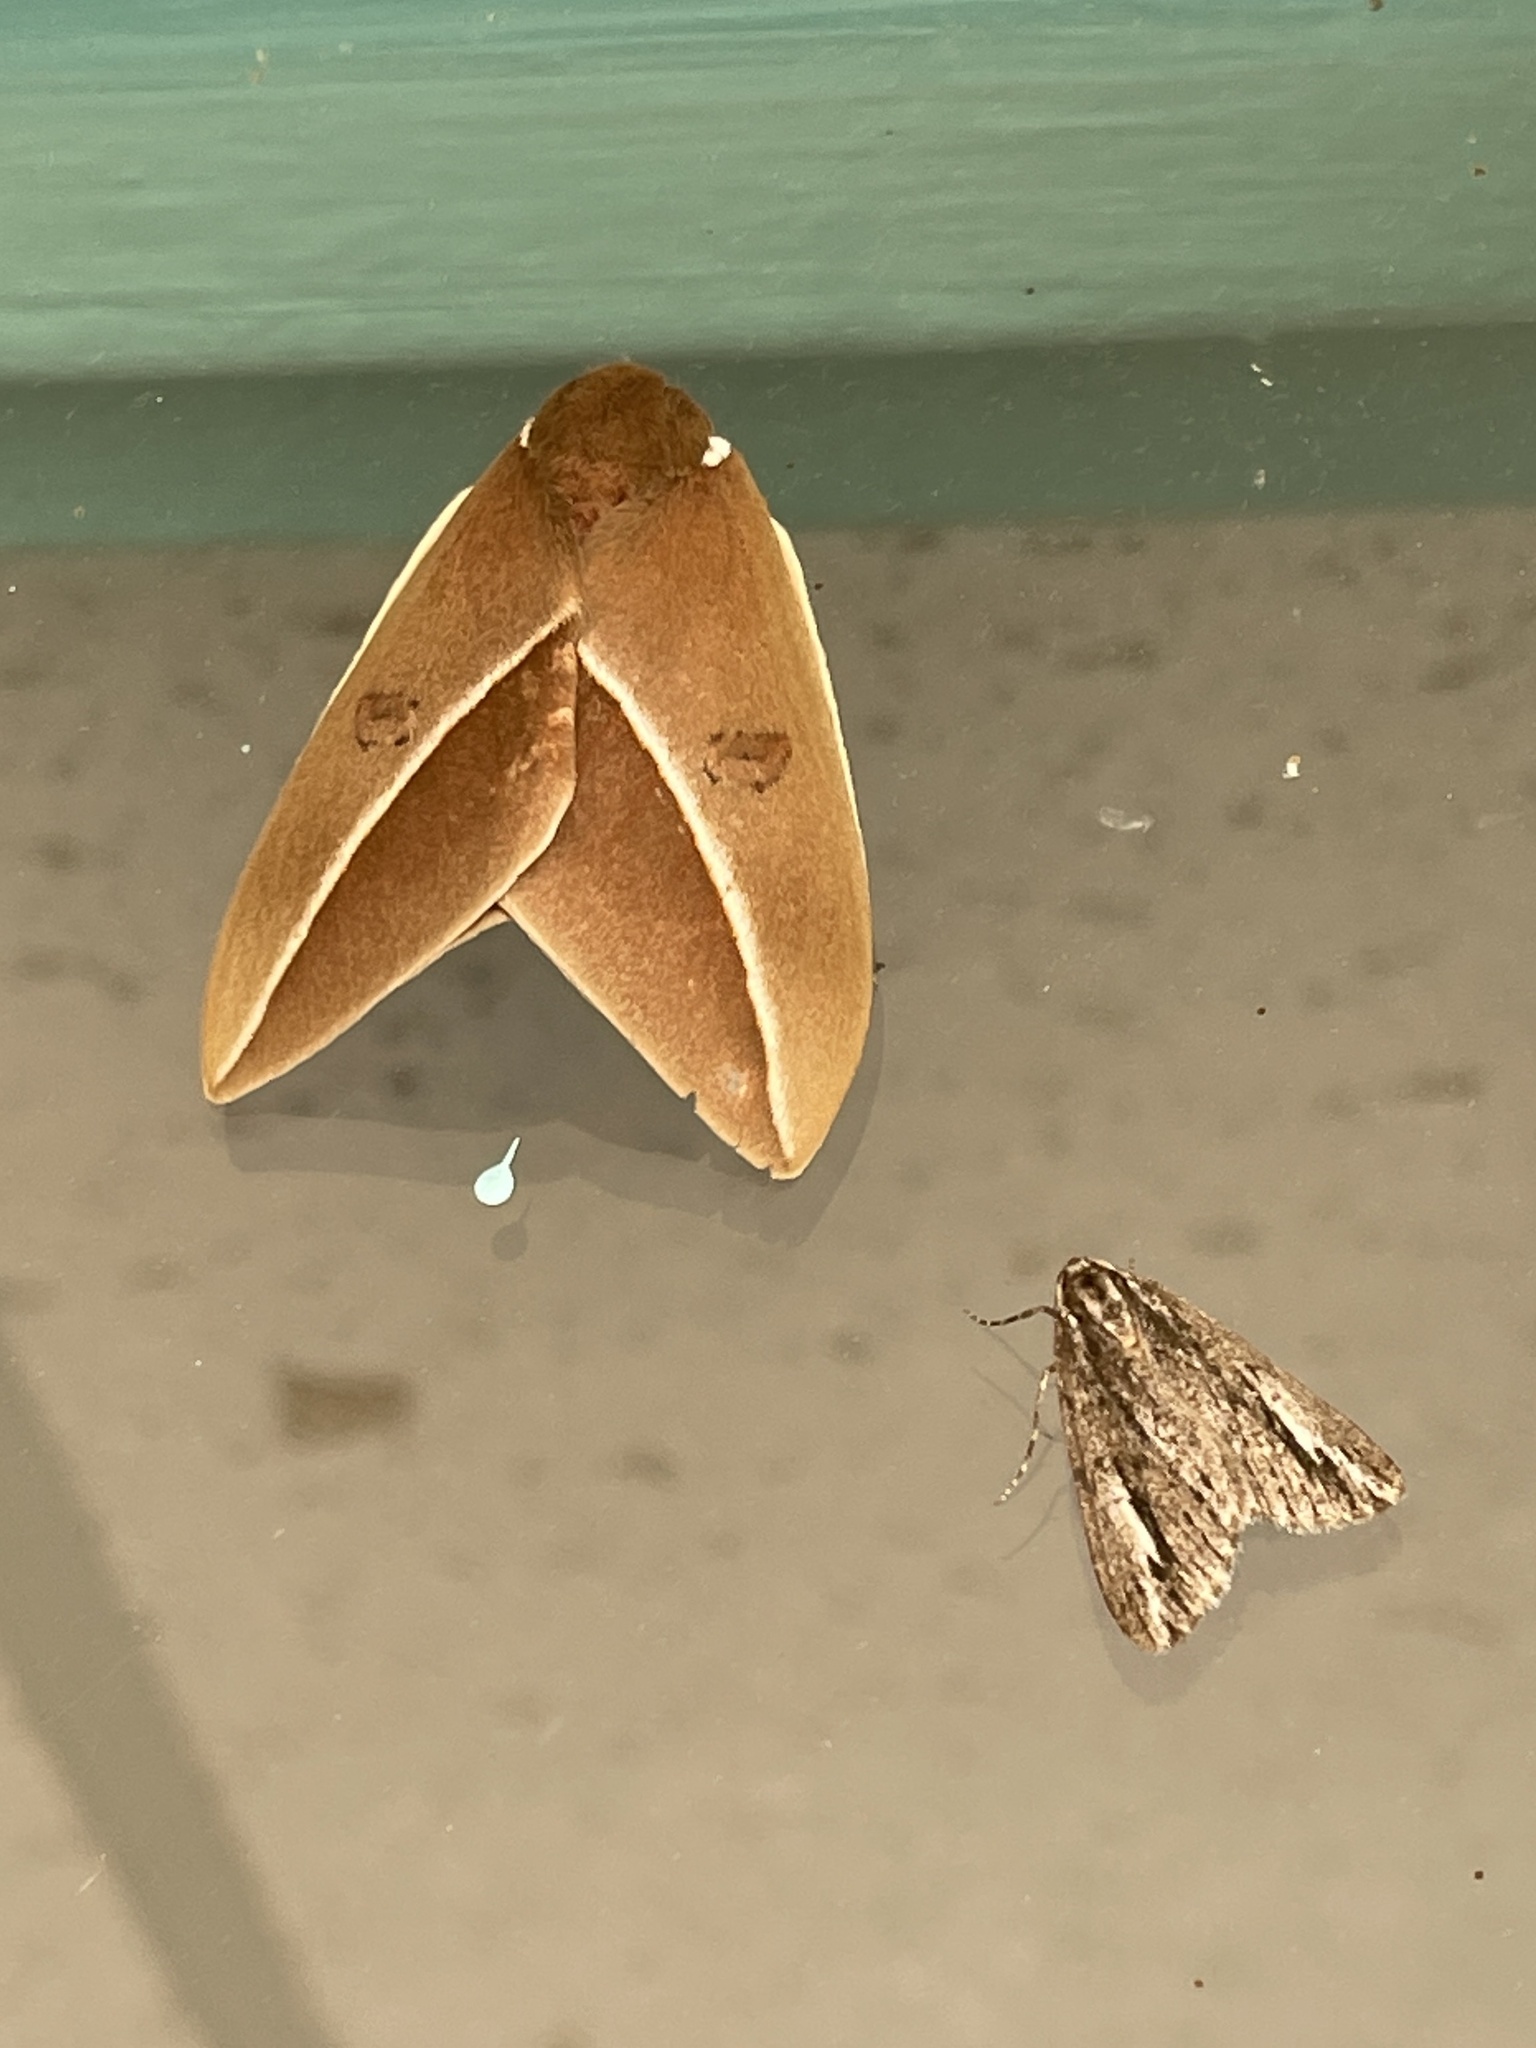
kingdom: Animalia
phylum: Arthropoda
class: Insecta
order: Lepidoptera
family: Saturniidae
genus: Automeris
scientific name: Automeris zephyria
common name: Zephyr eyed silkmoth
